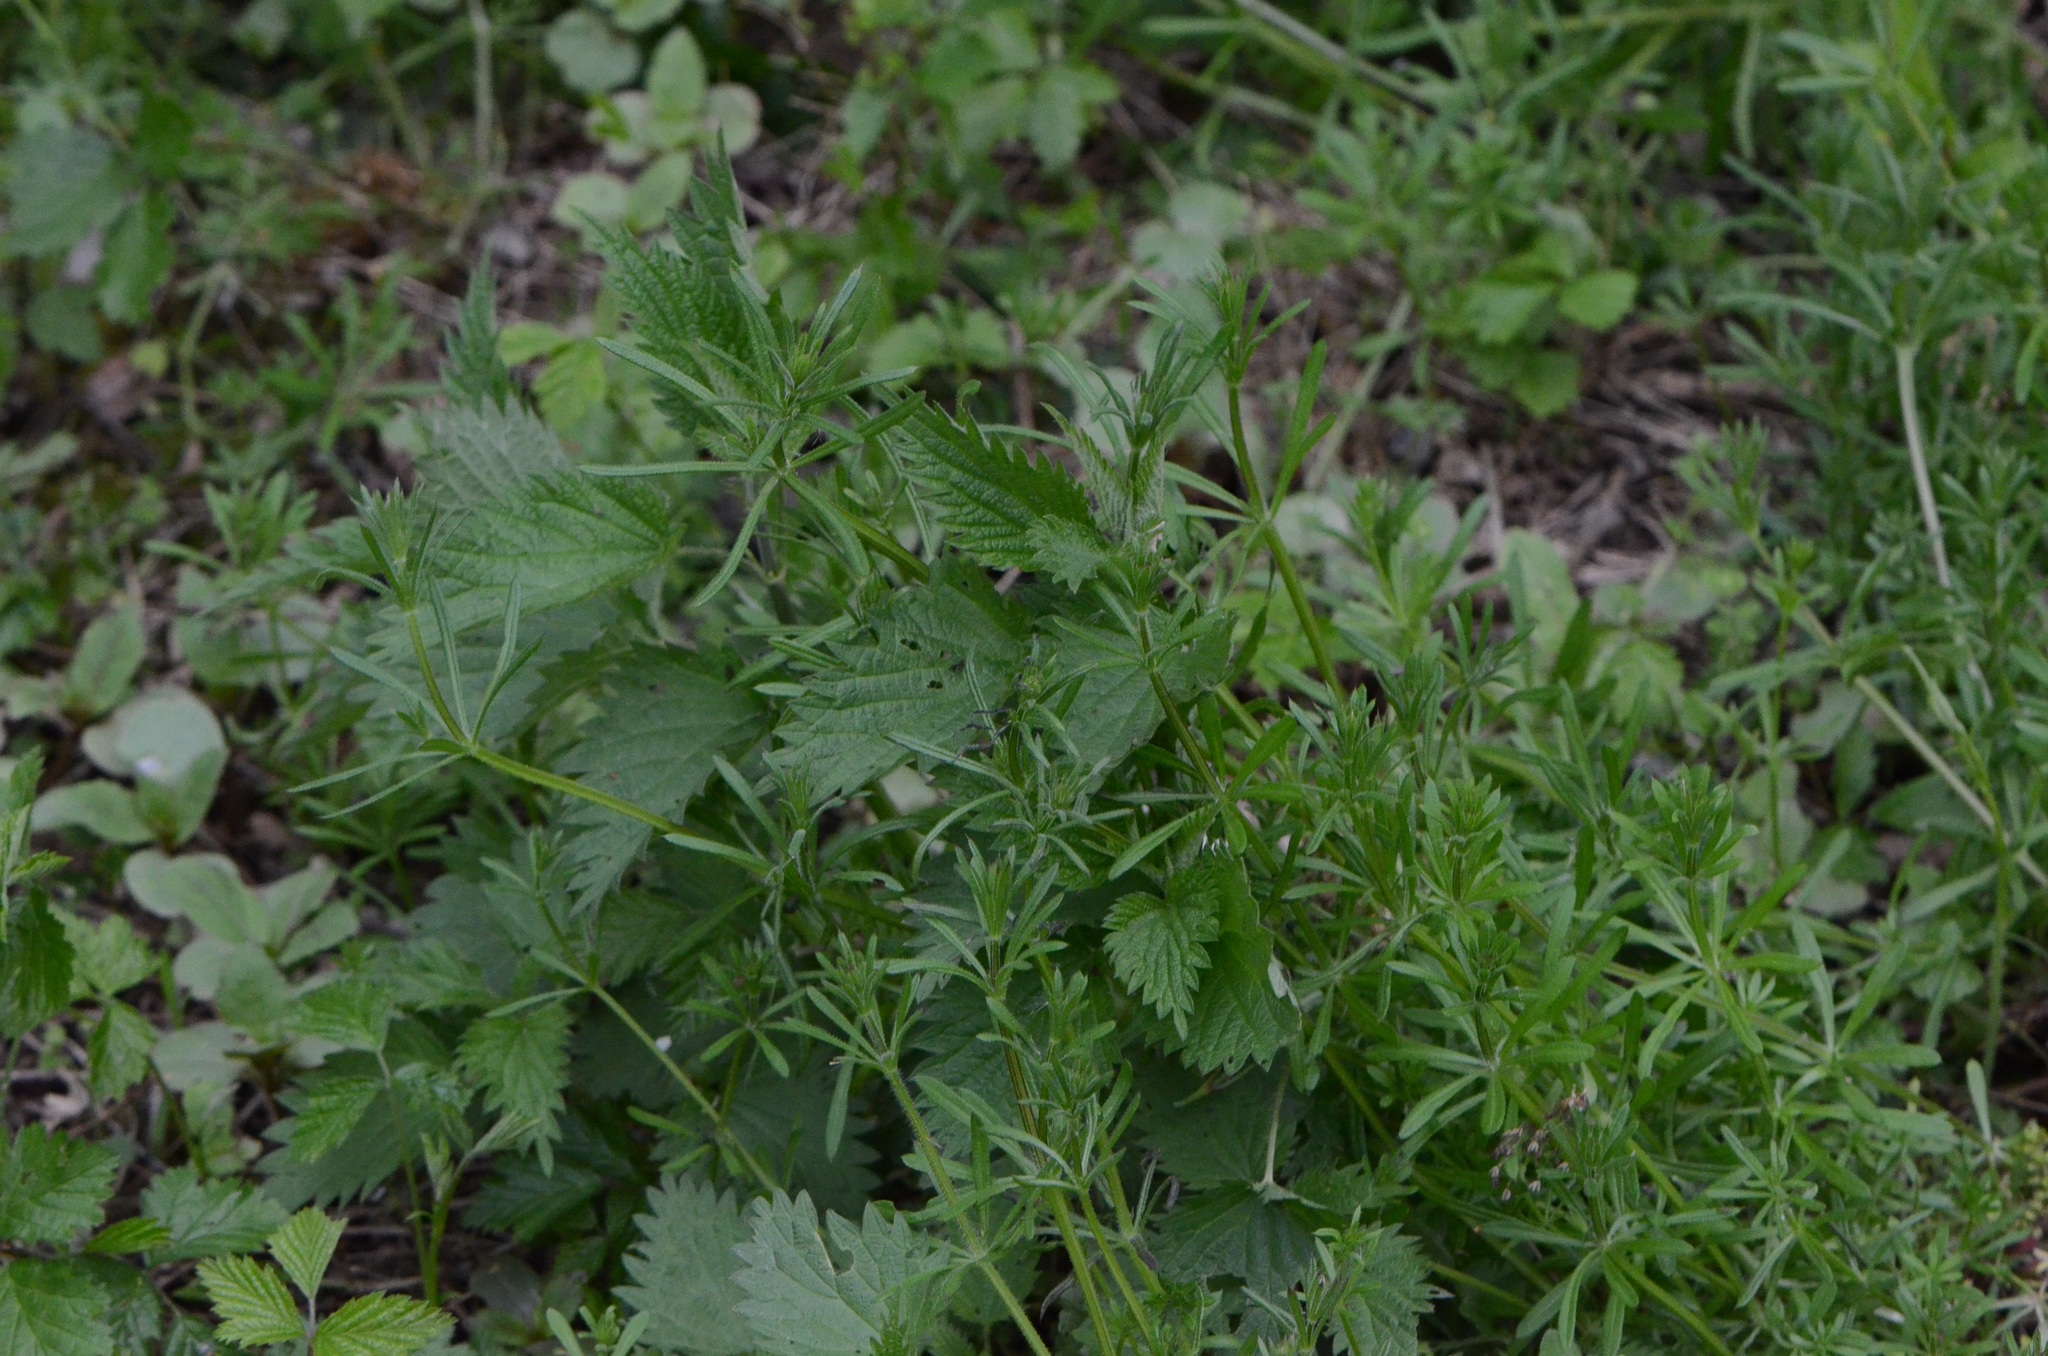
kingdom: Plantae
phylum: Tracheophyta
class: Magnoliopsida
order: Rosales
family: Urticaceae
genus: Urtica
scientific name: Urtica dioica
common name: Common nettle
